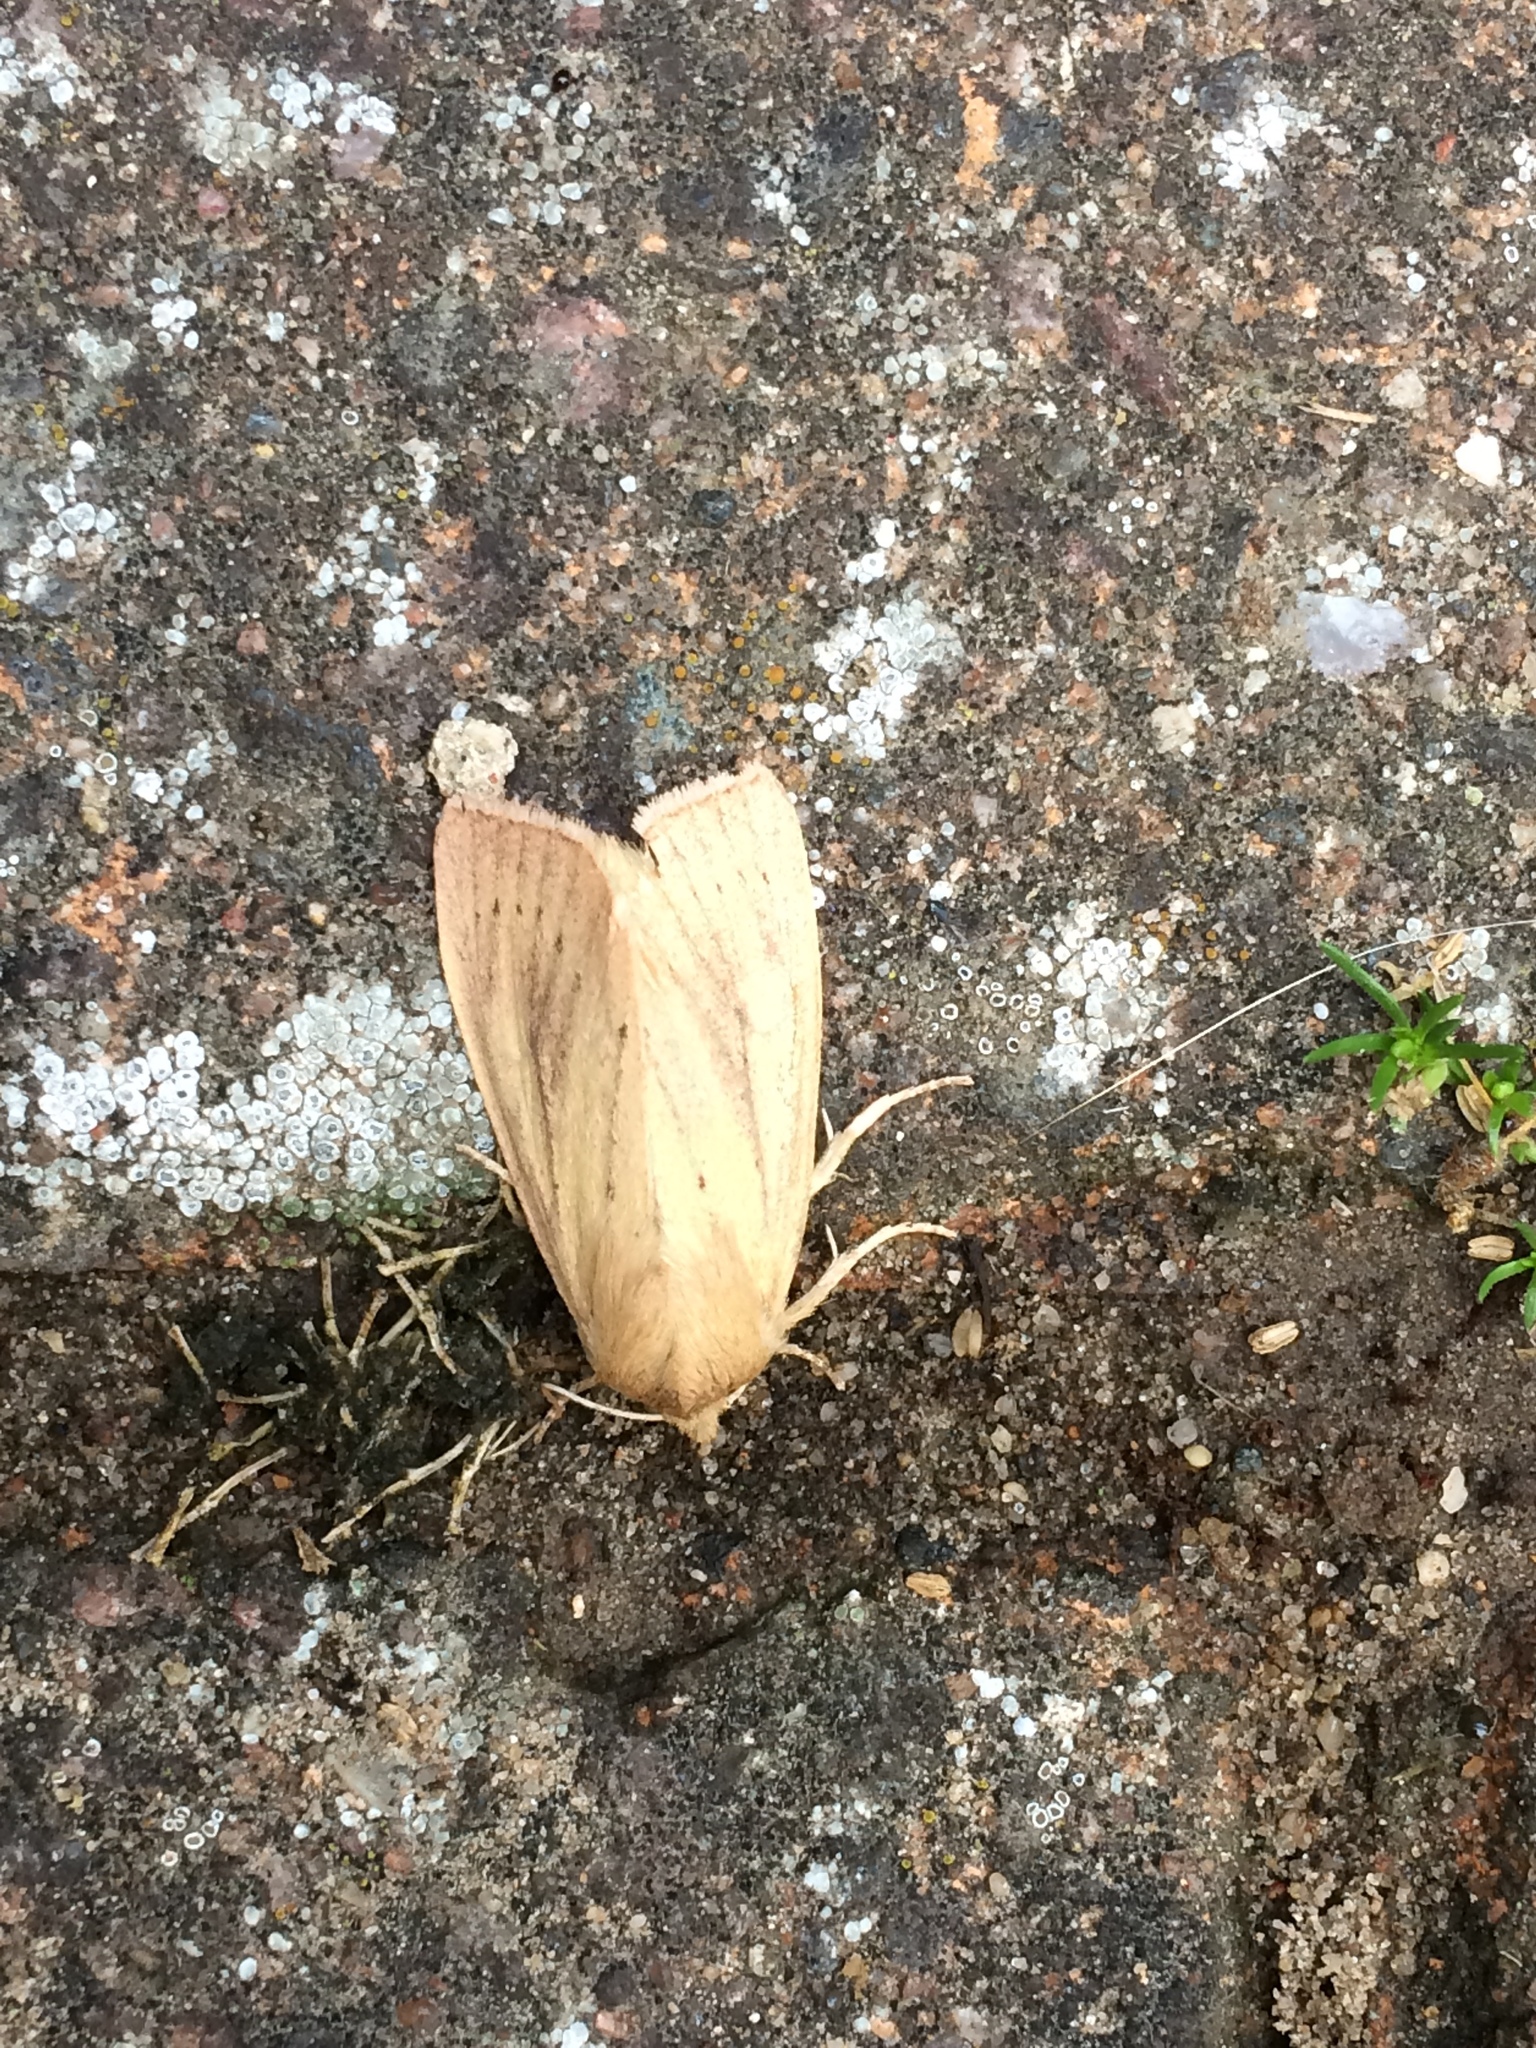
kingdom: Animalia
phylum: Arthropoda
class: Insecta
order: Lepidoptera
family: Noctuidae
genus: Rhizedra
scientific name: Rhizedra lutosa
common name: Large wainscot
